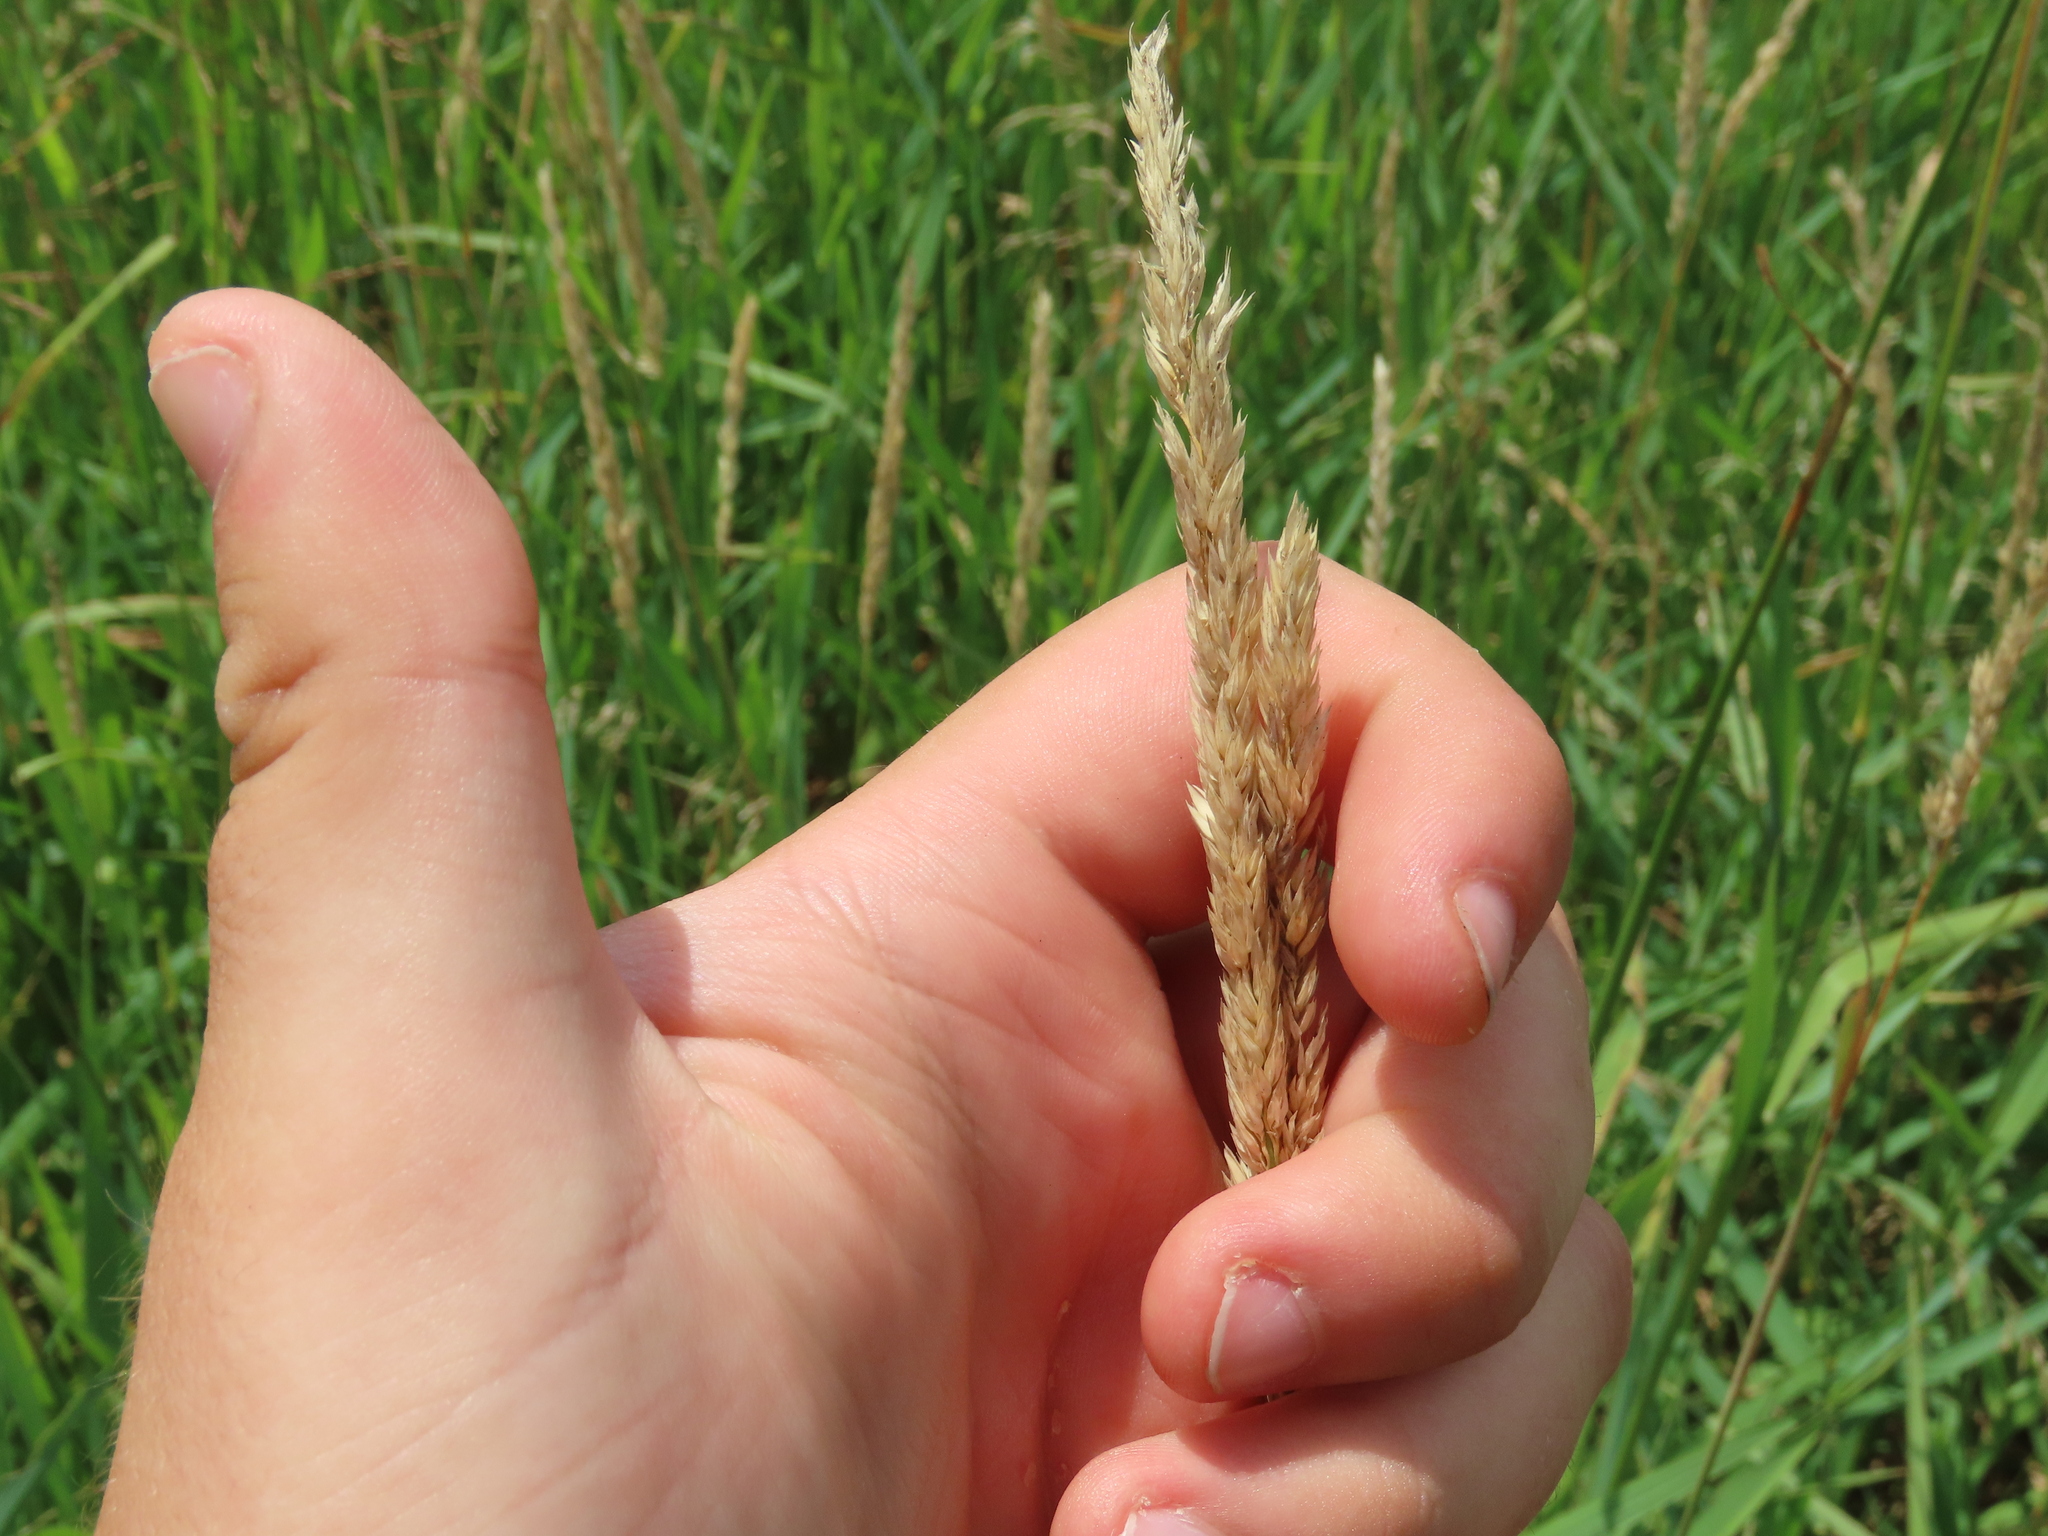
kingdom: Plantae
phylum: Tracheophyta
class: Liliopsida
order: Poales
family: Poaceae
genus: Phalaris
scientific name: Phalaris arundinacea
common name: Reed canary-grass
